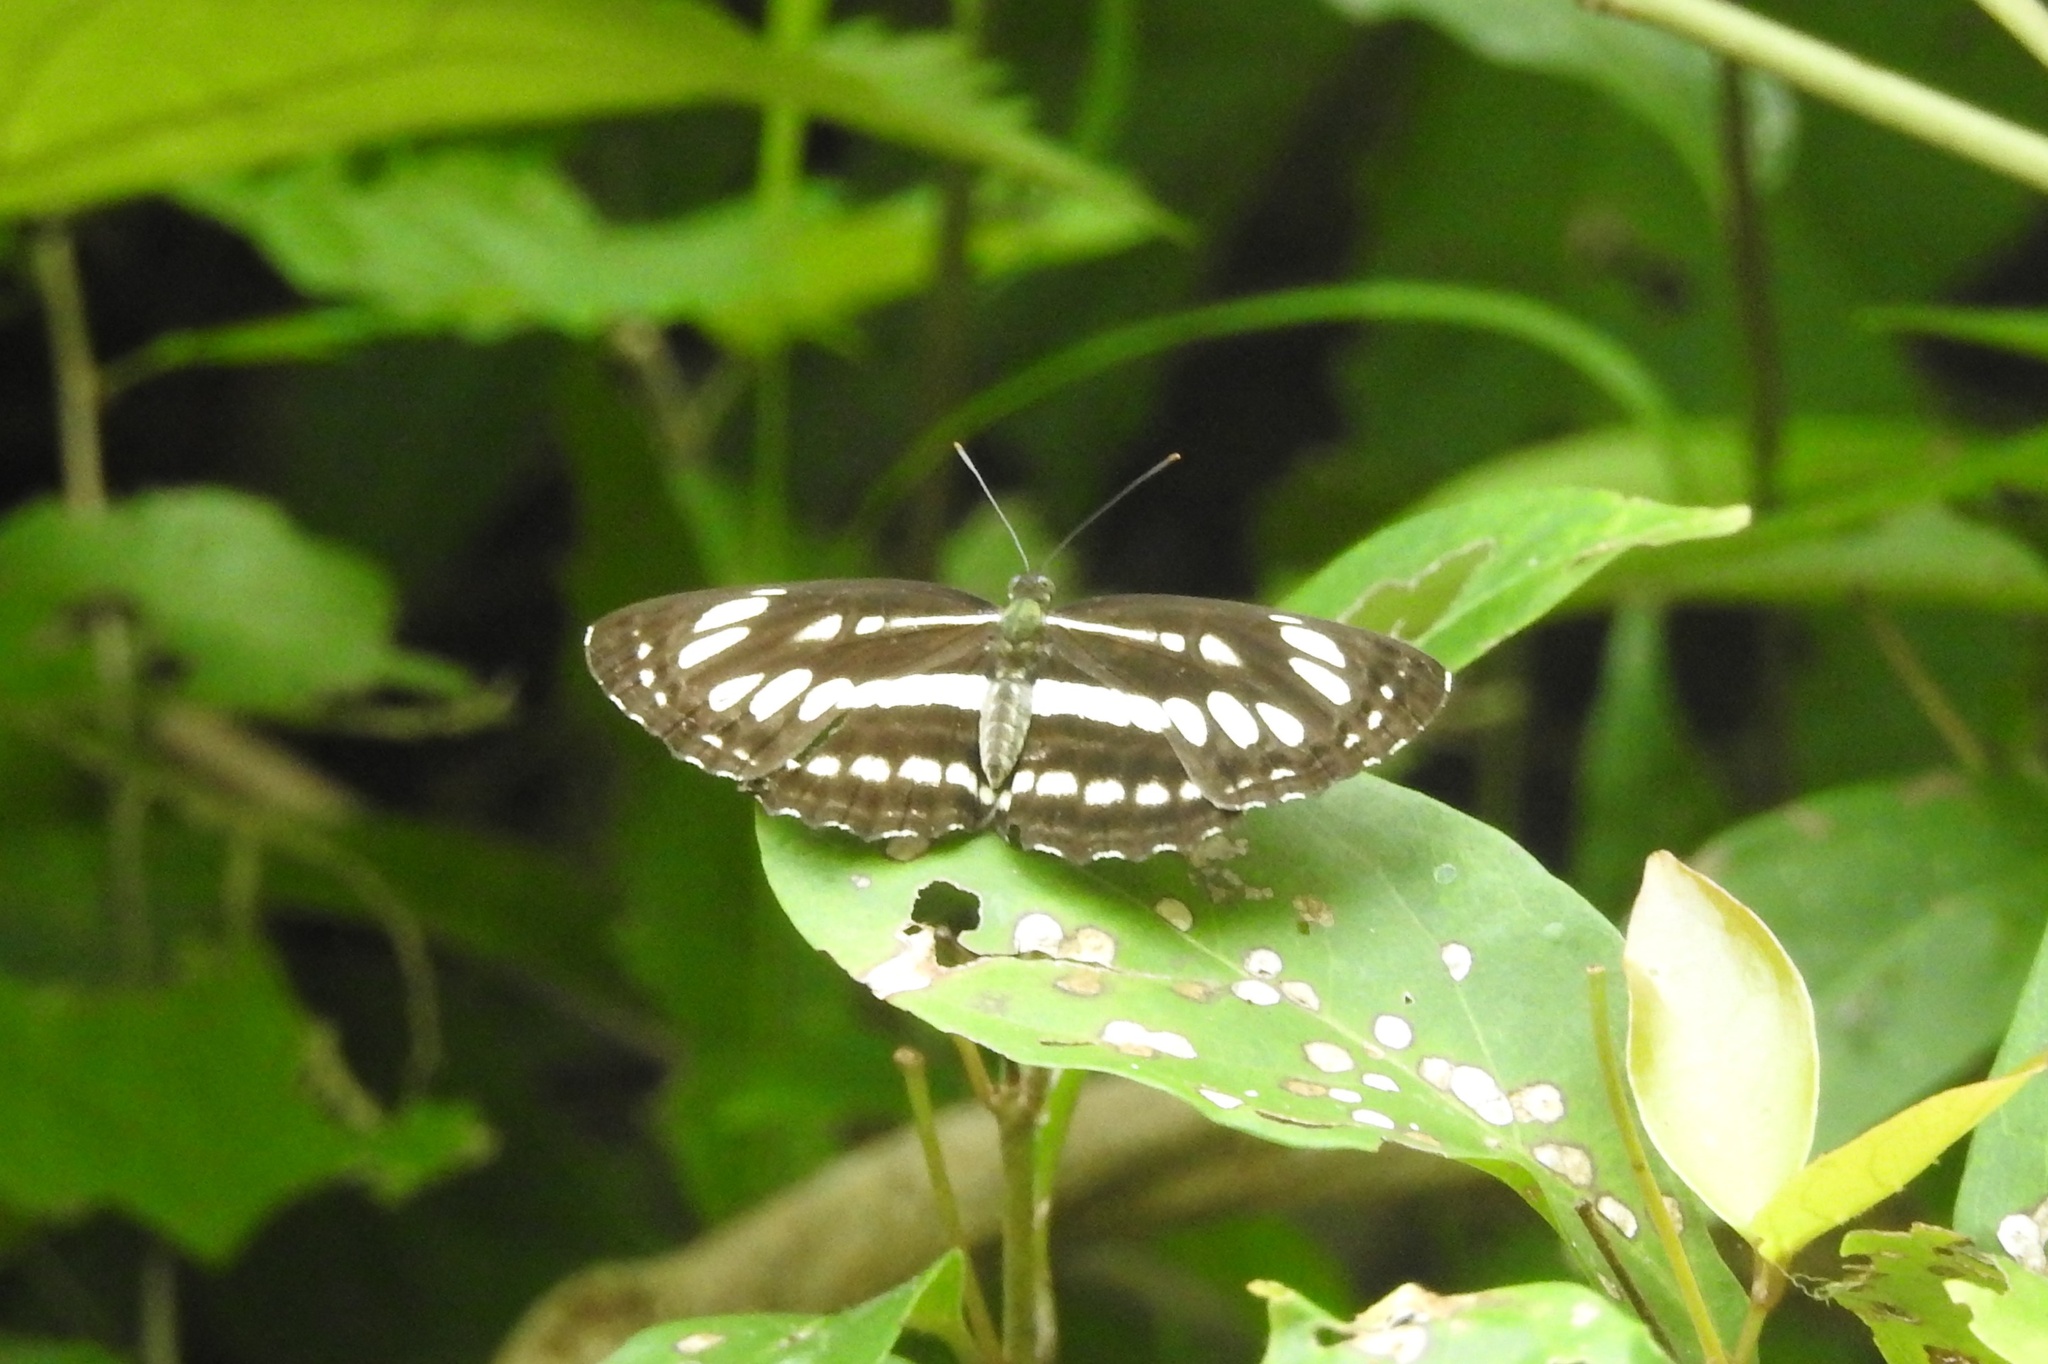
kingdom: Animalia
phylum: Arthropoda
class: Insecta
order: Lepidoptera
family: Nymphalidae
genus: Neptis
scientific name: Neptis hylas
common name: Common sailer
